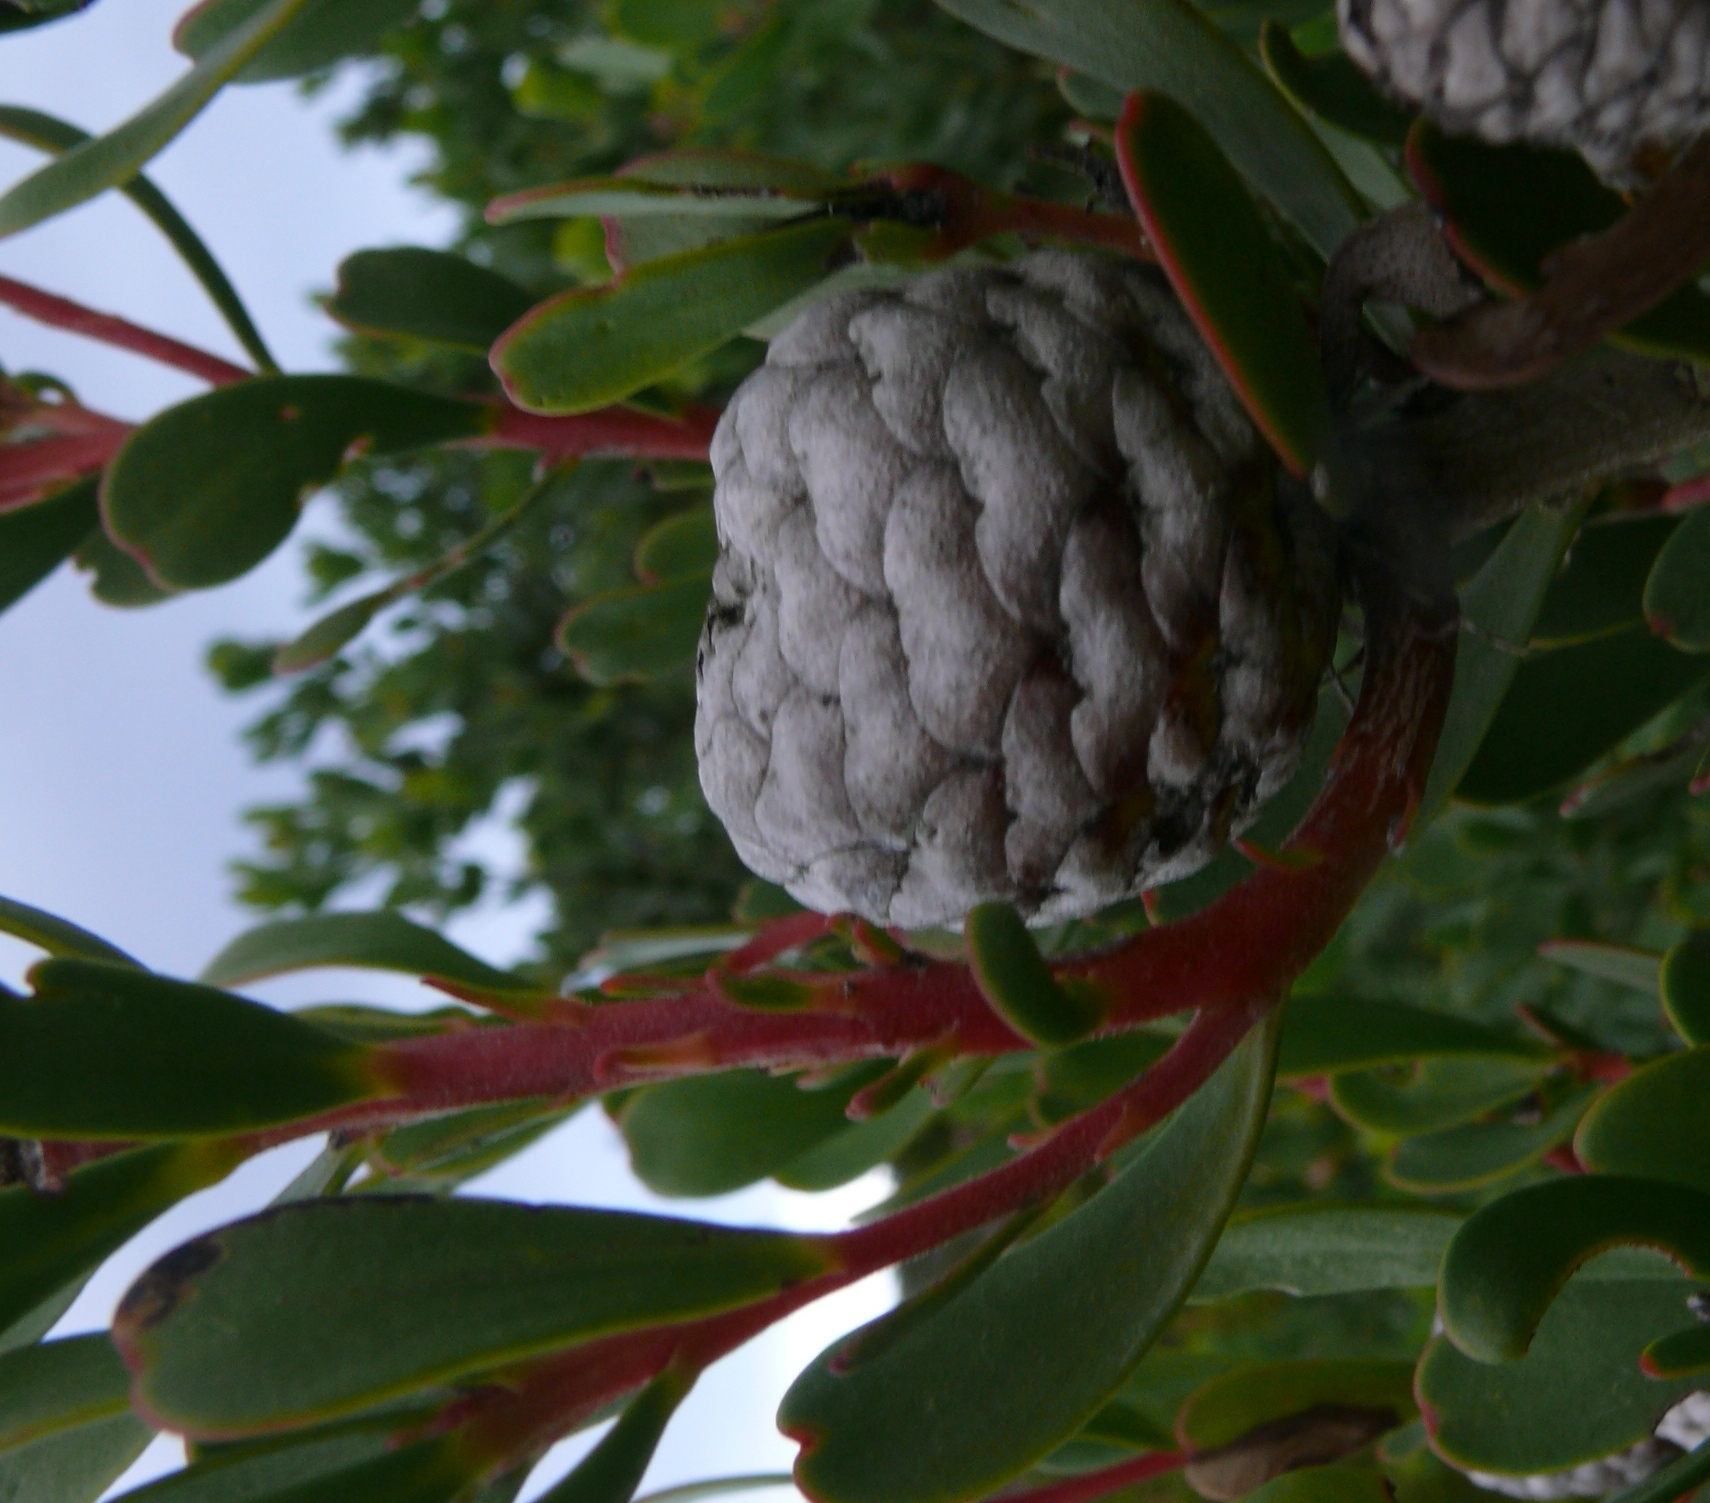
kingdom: Plantae
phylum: Tracheophyta
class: Magnoliopsida
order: Proteales
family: Proteaceae
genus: Leucadendron
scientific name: Leucadendron muirii
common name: Silver-ball conebush
